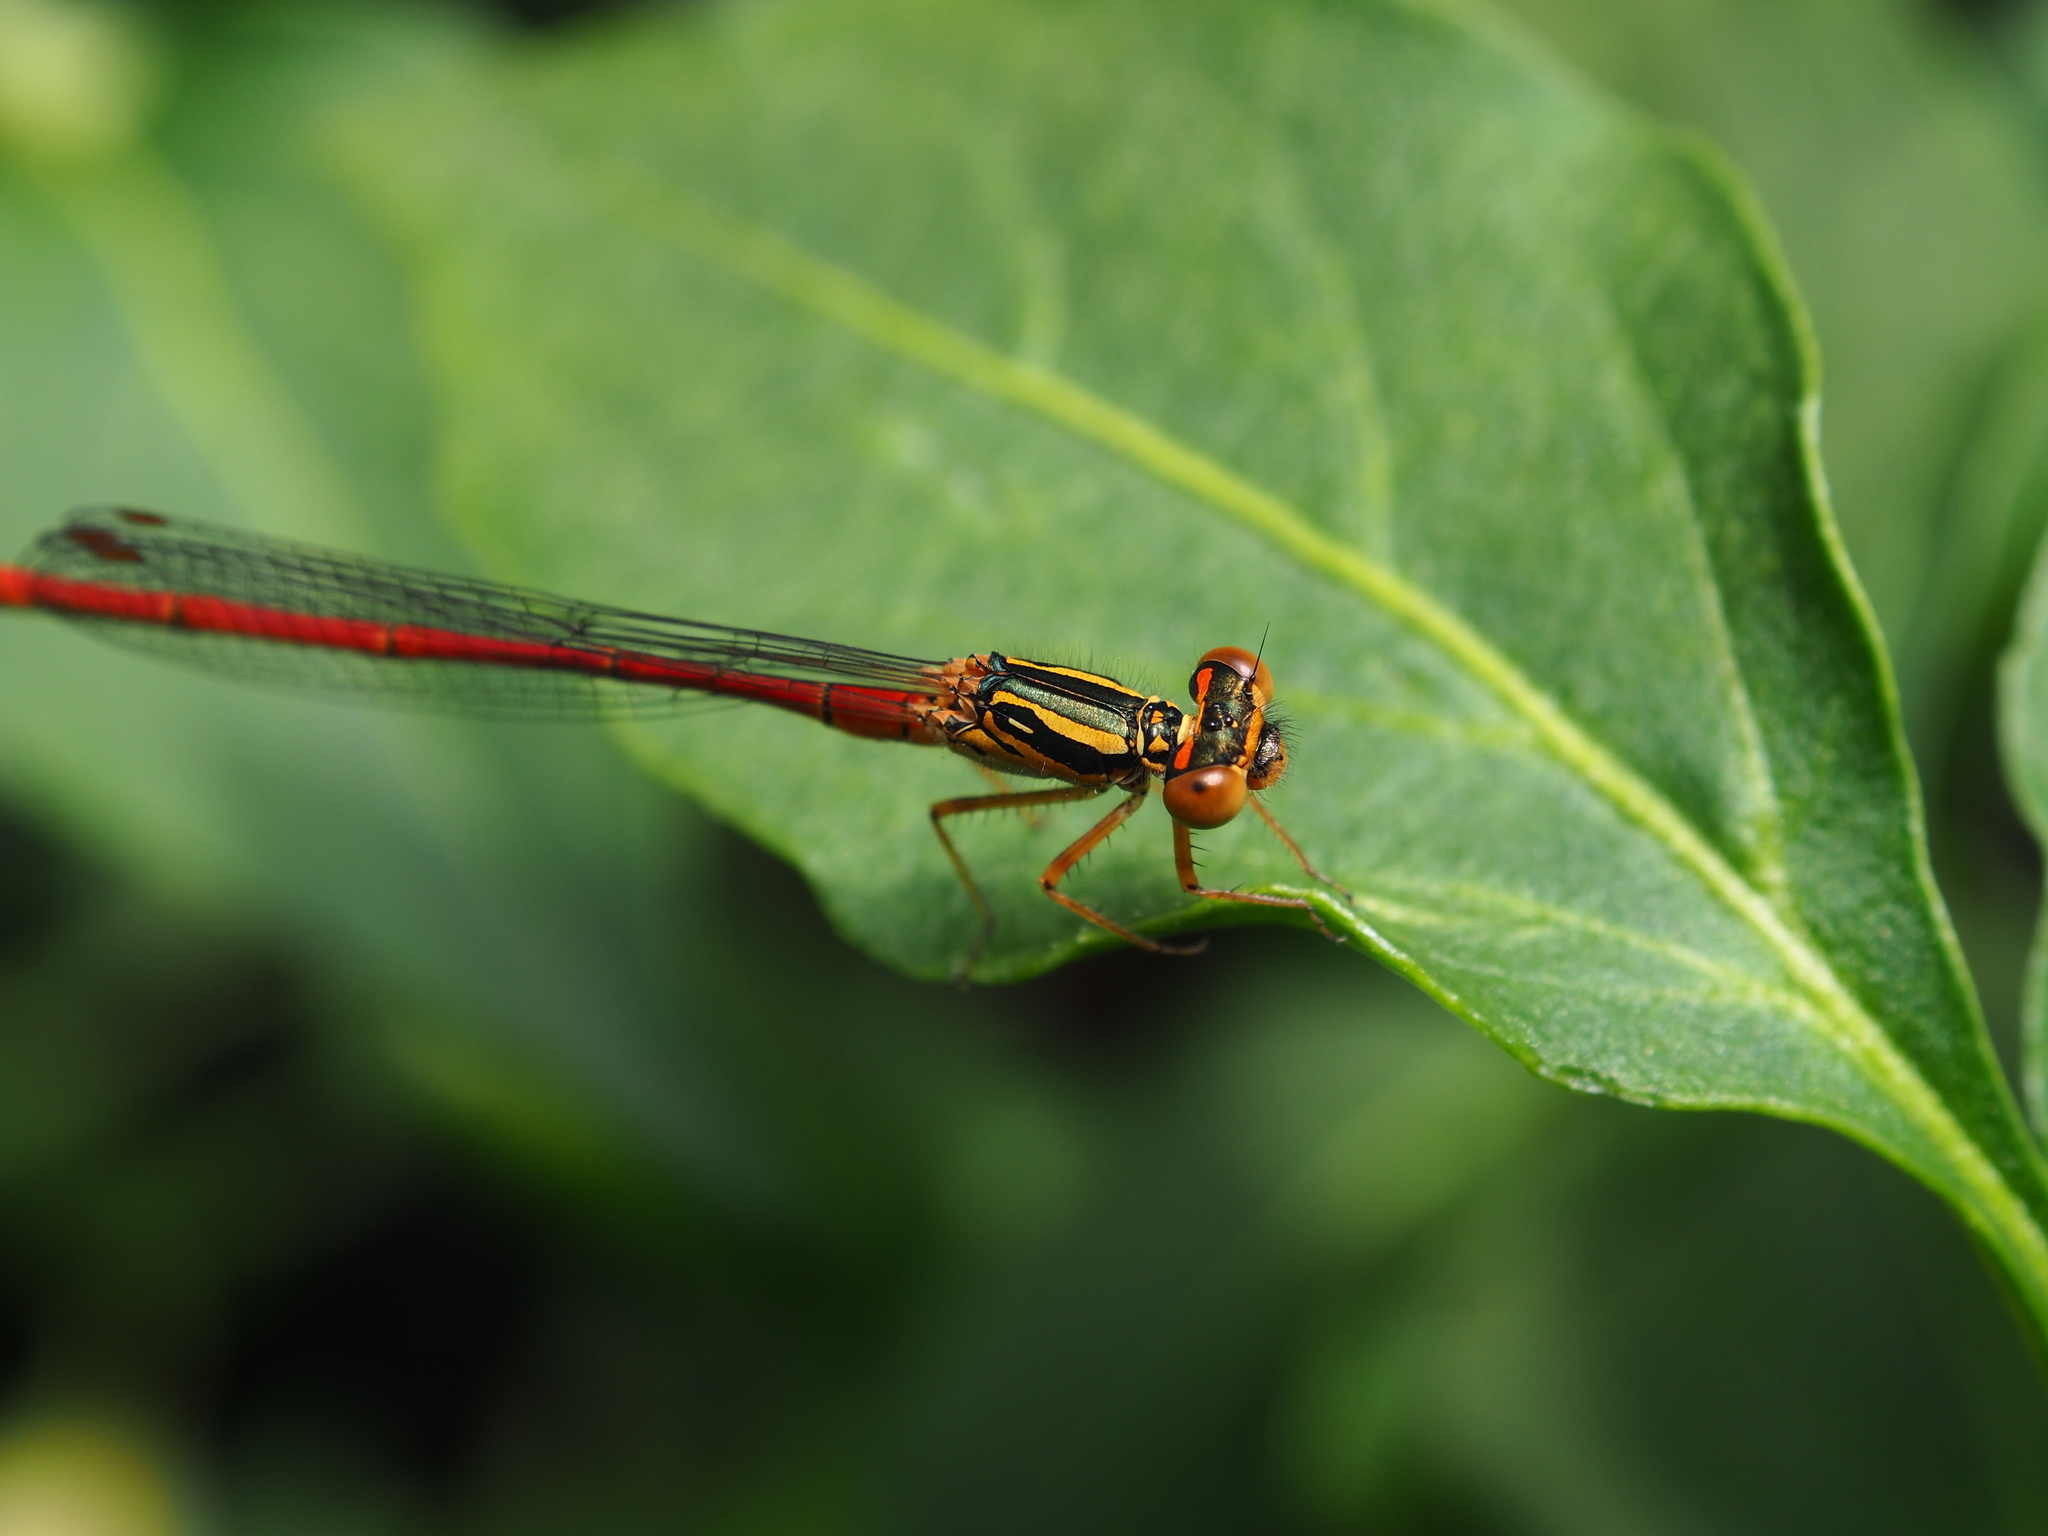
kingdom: Animalia
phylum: Arthropoda
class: Insecta
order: Odonata
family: Coenagrionidae
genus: Xanthocnemis
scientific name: Xanthocnemis zealandica
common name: Common redcoat damselfly
